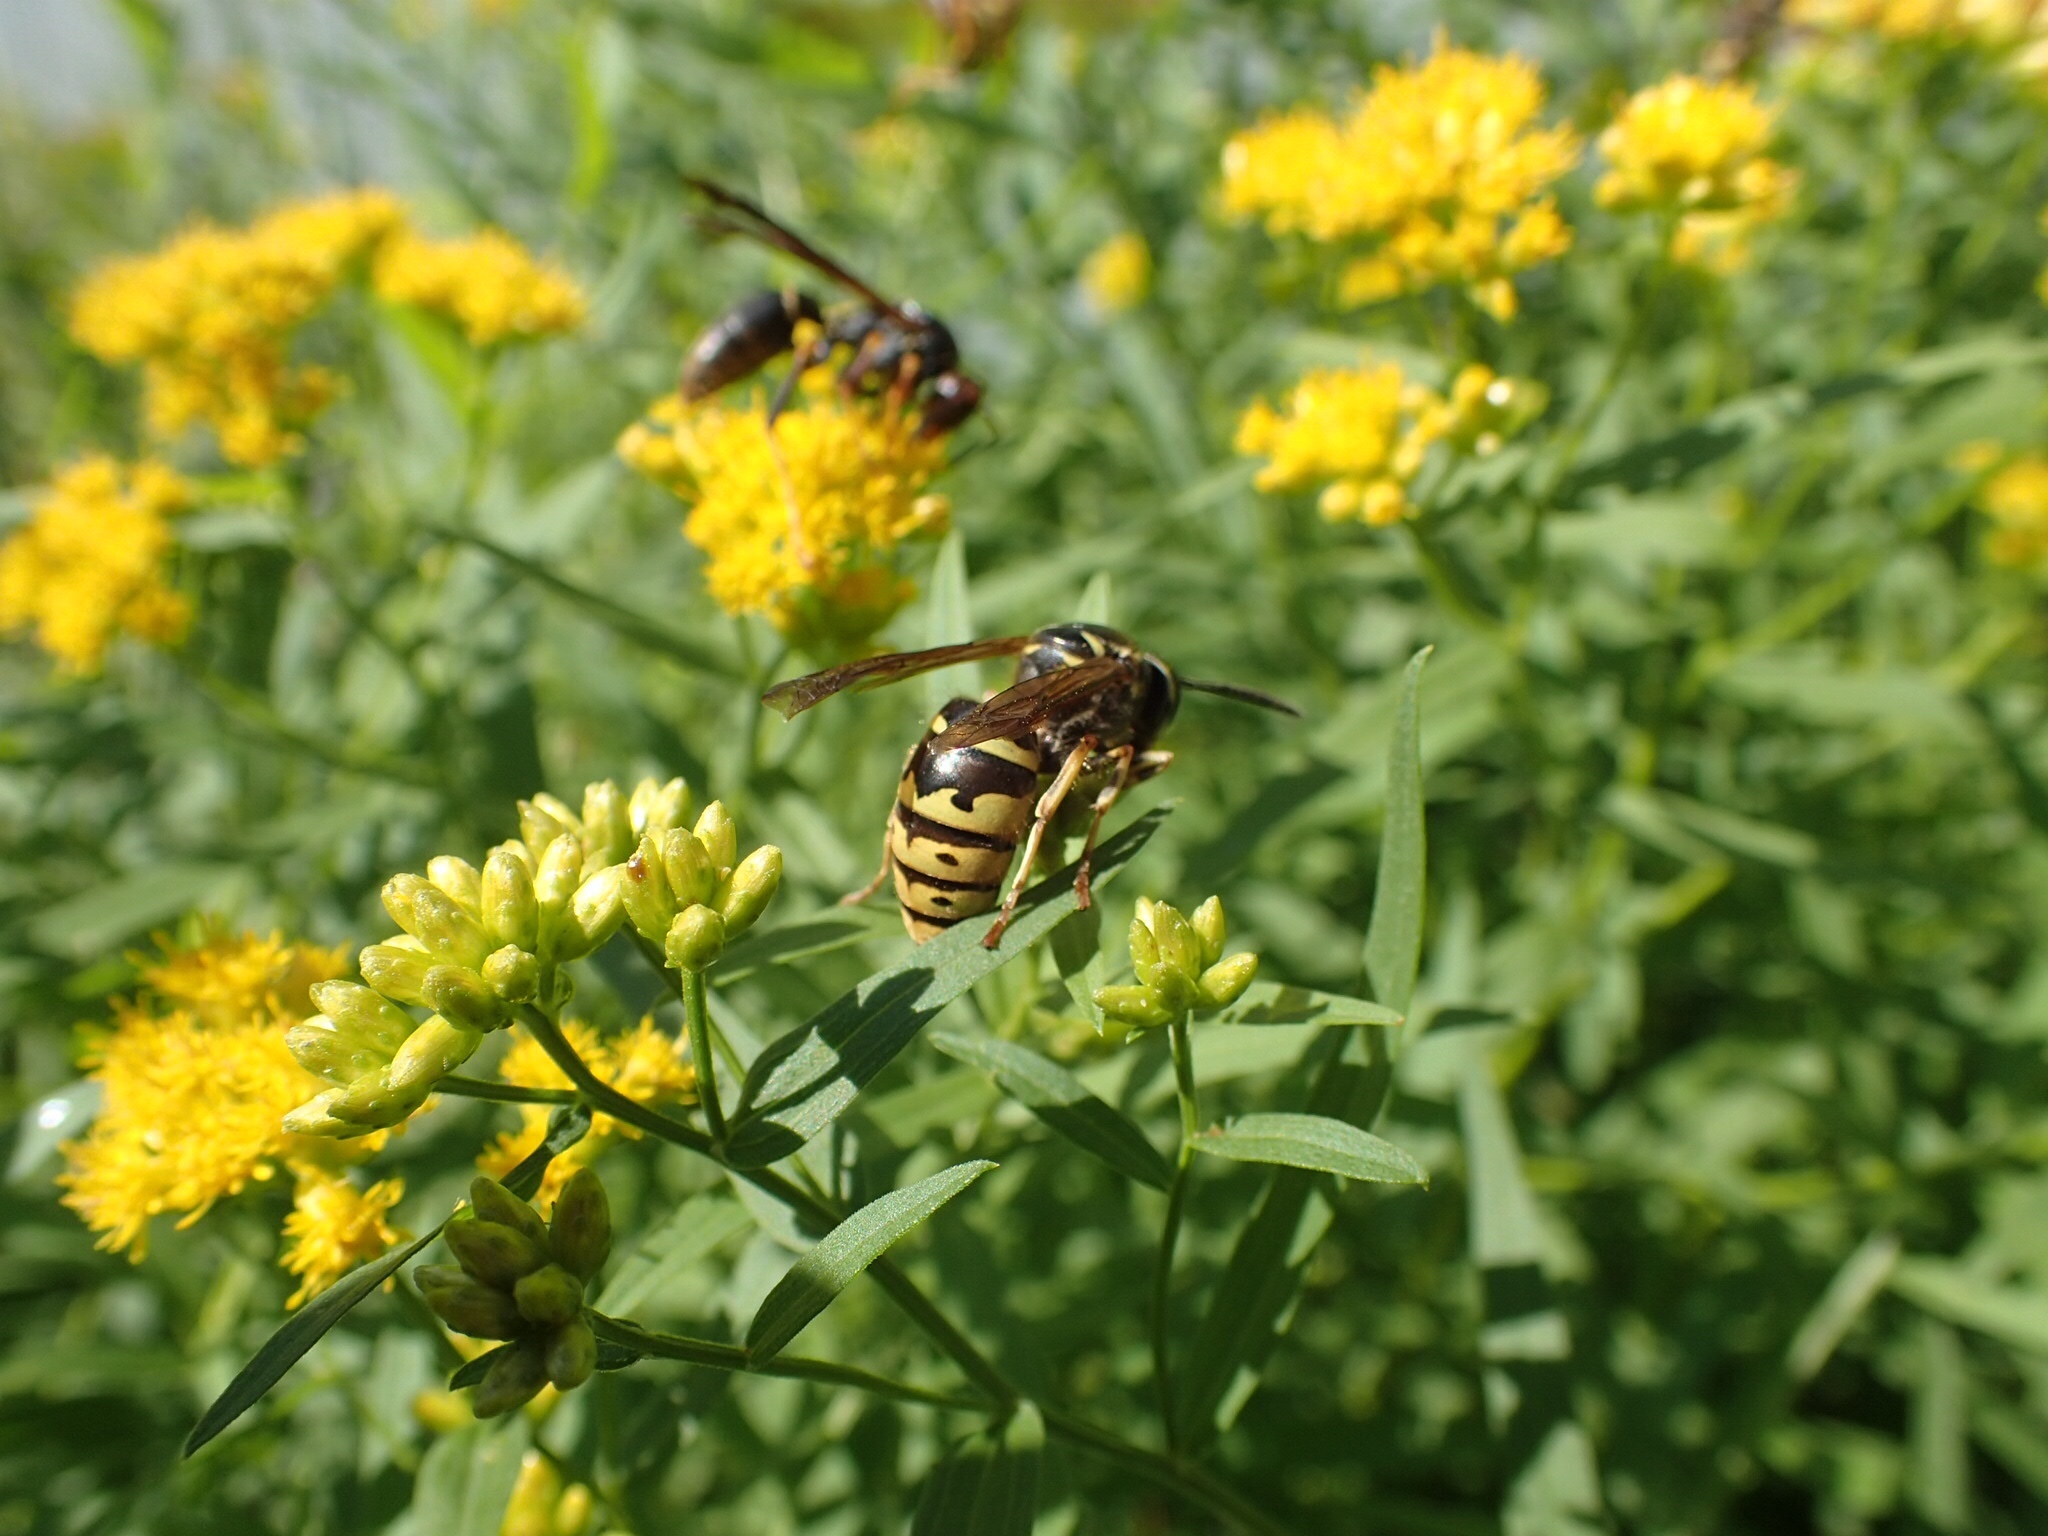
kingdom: Animalia
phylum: Arthropoda
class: Insecta
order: Hymenoptera
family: Vespidae
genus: Vespula
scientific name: Vespula alascensis
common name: Alaska yellowjacket
